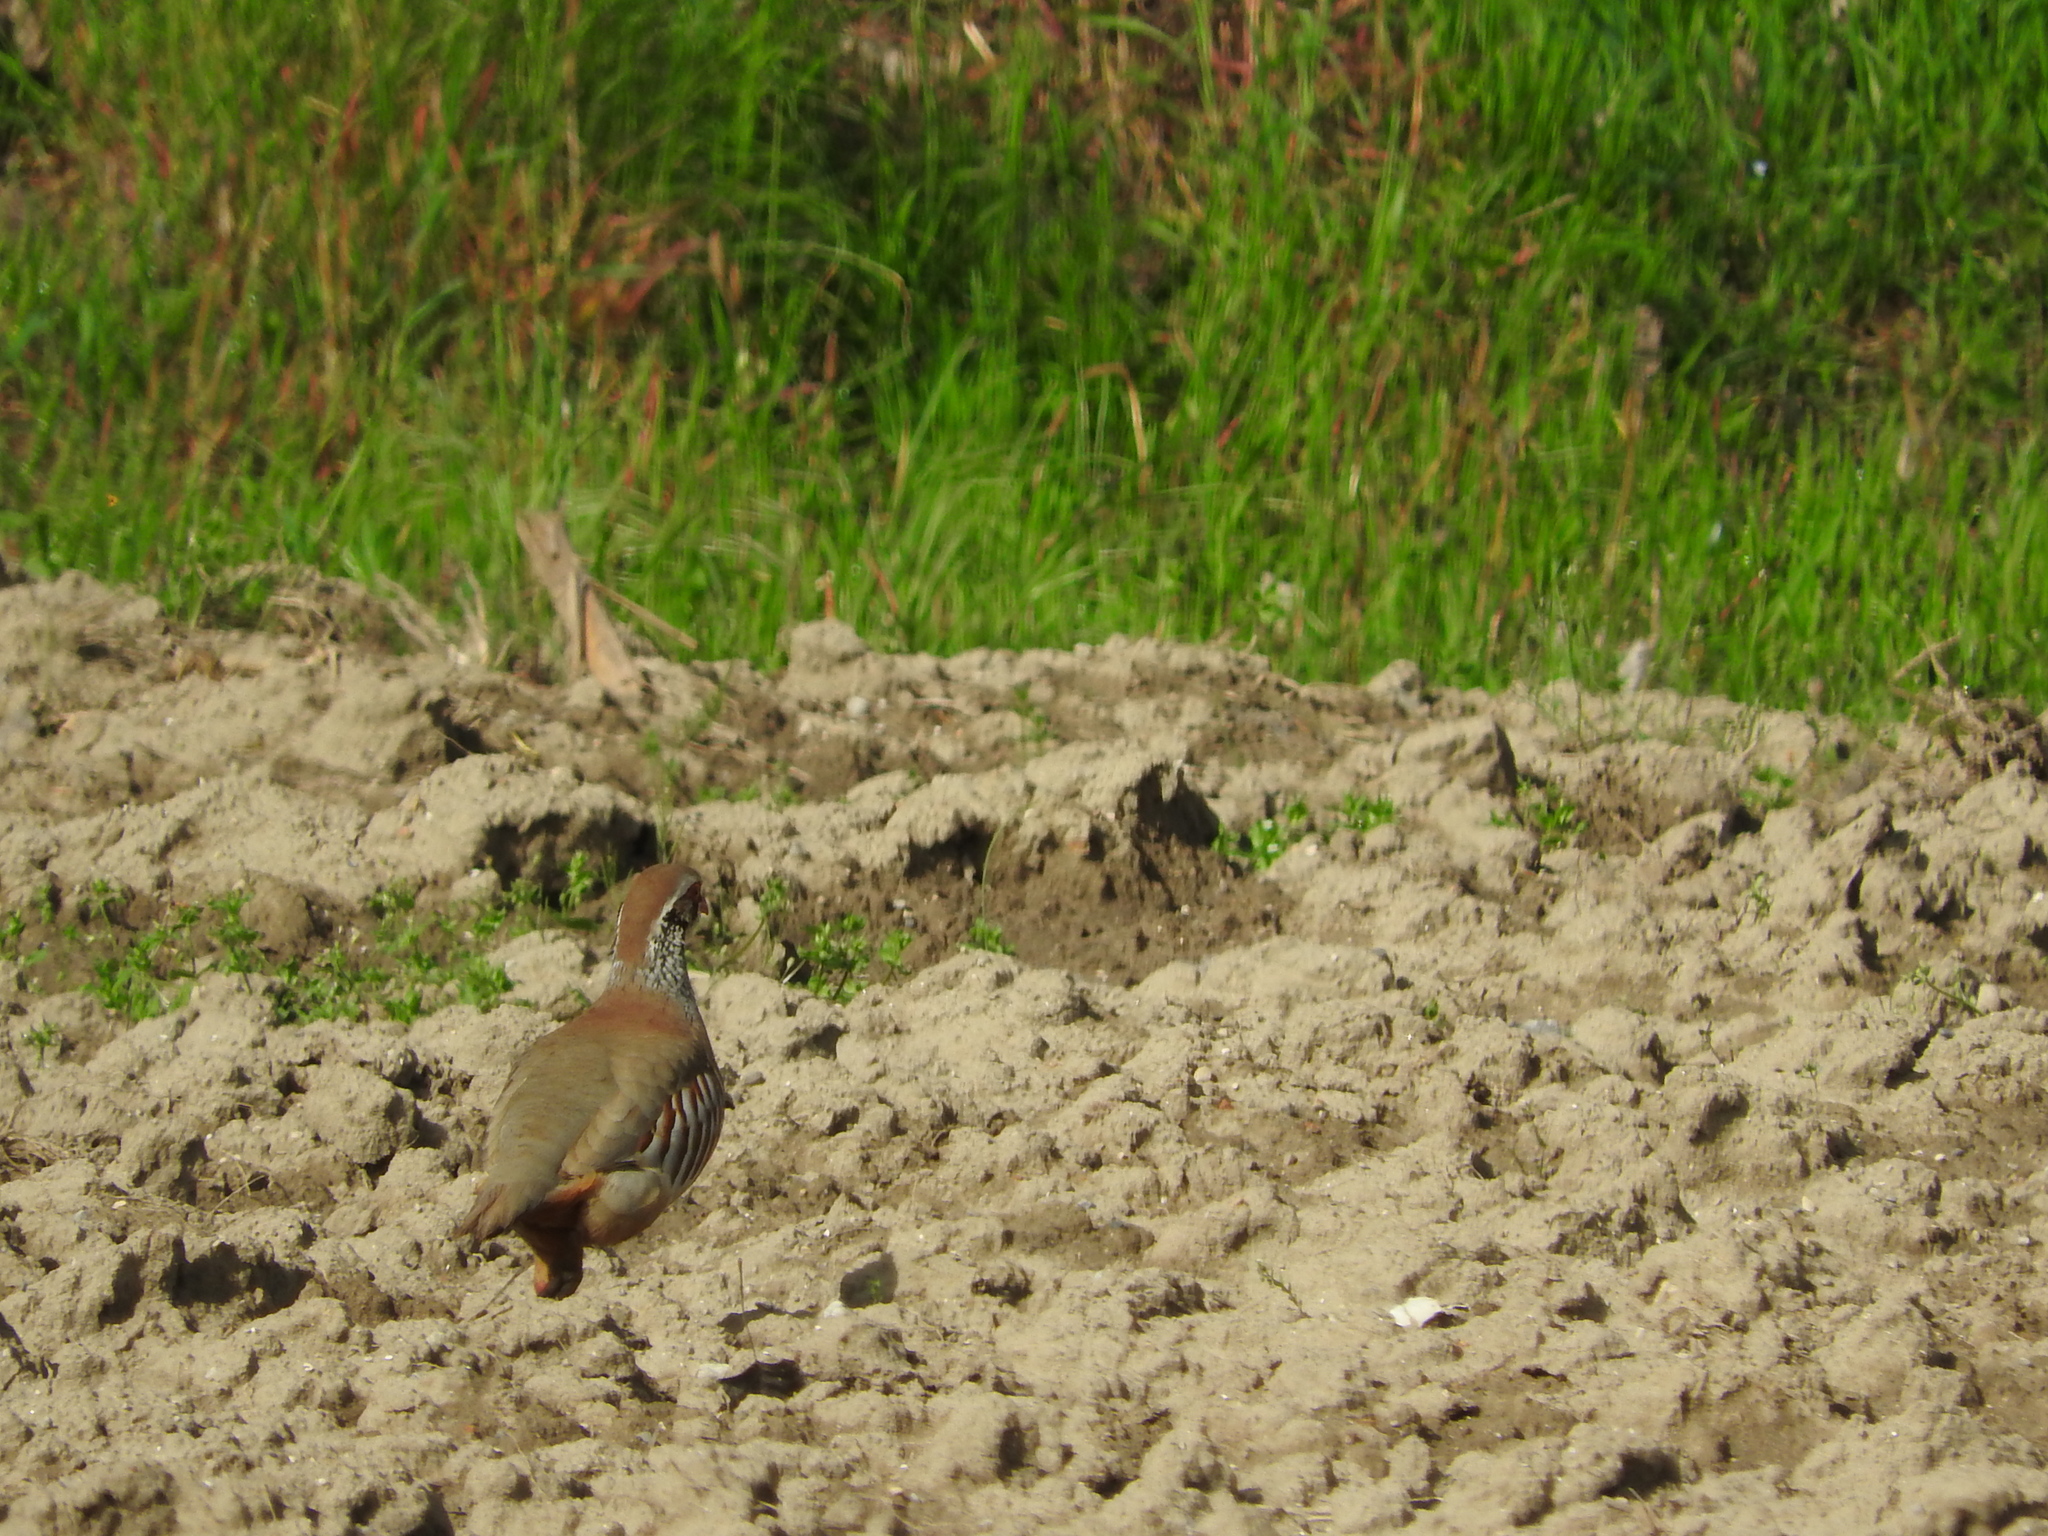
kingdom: Animalia
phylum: Chordata
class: Aves
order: Galliformes
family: Phasianidae
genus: Alectoris
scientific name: Alectoris rufa
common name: Red-legged partridge
